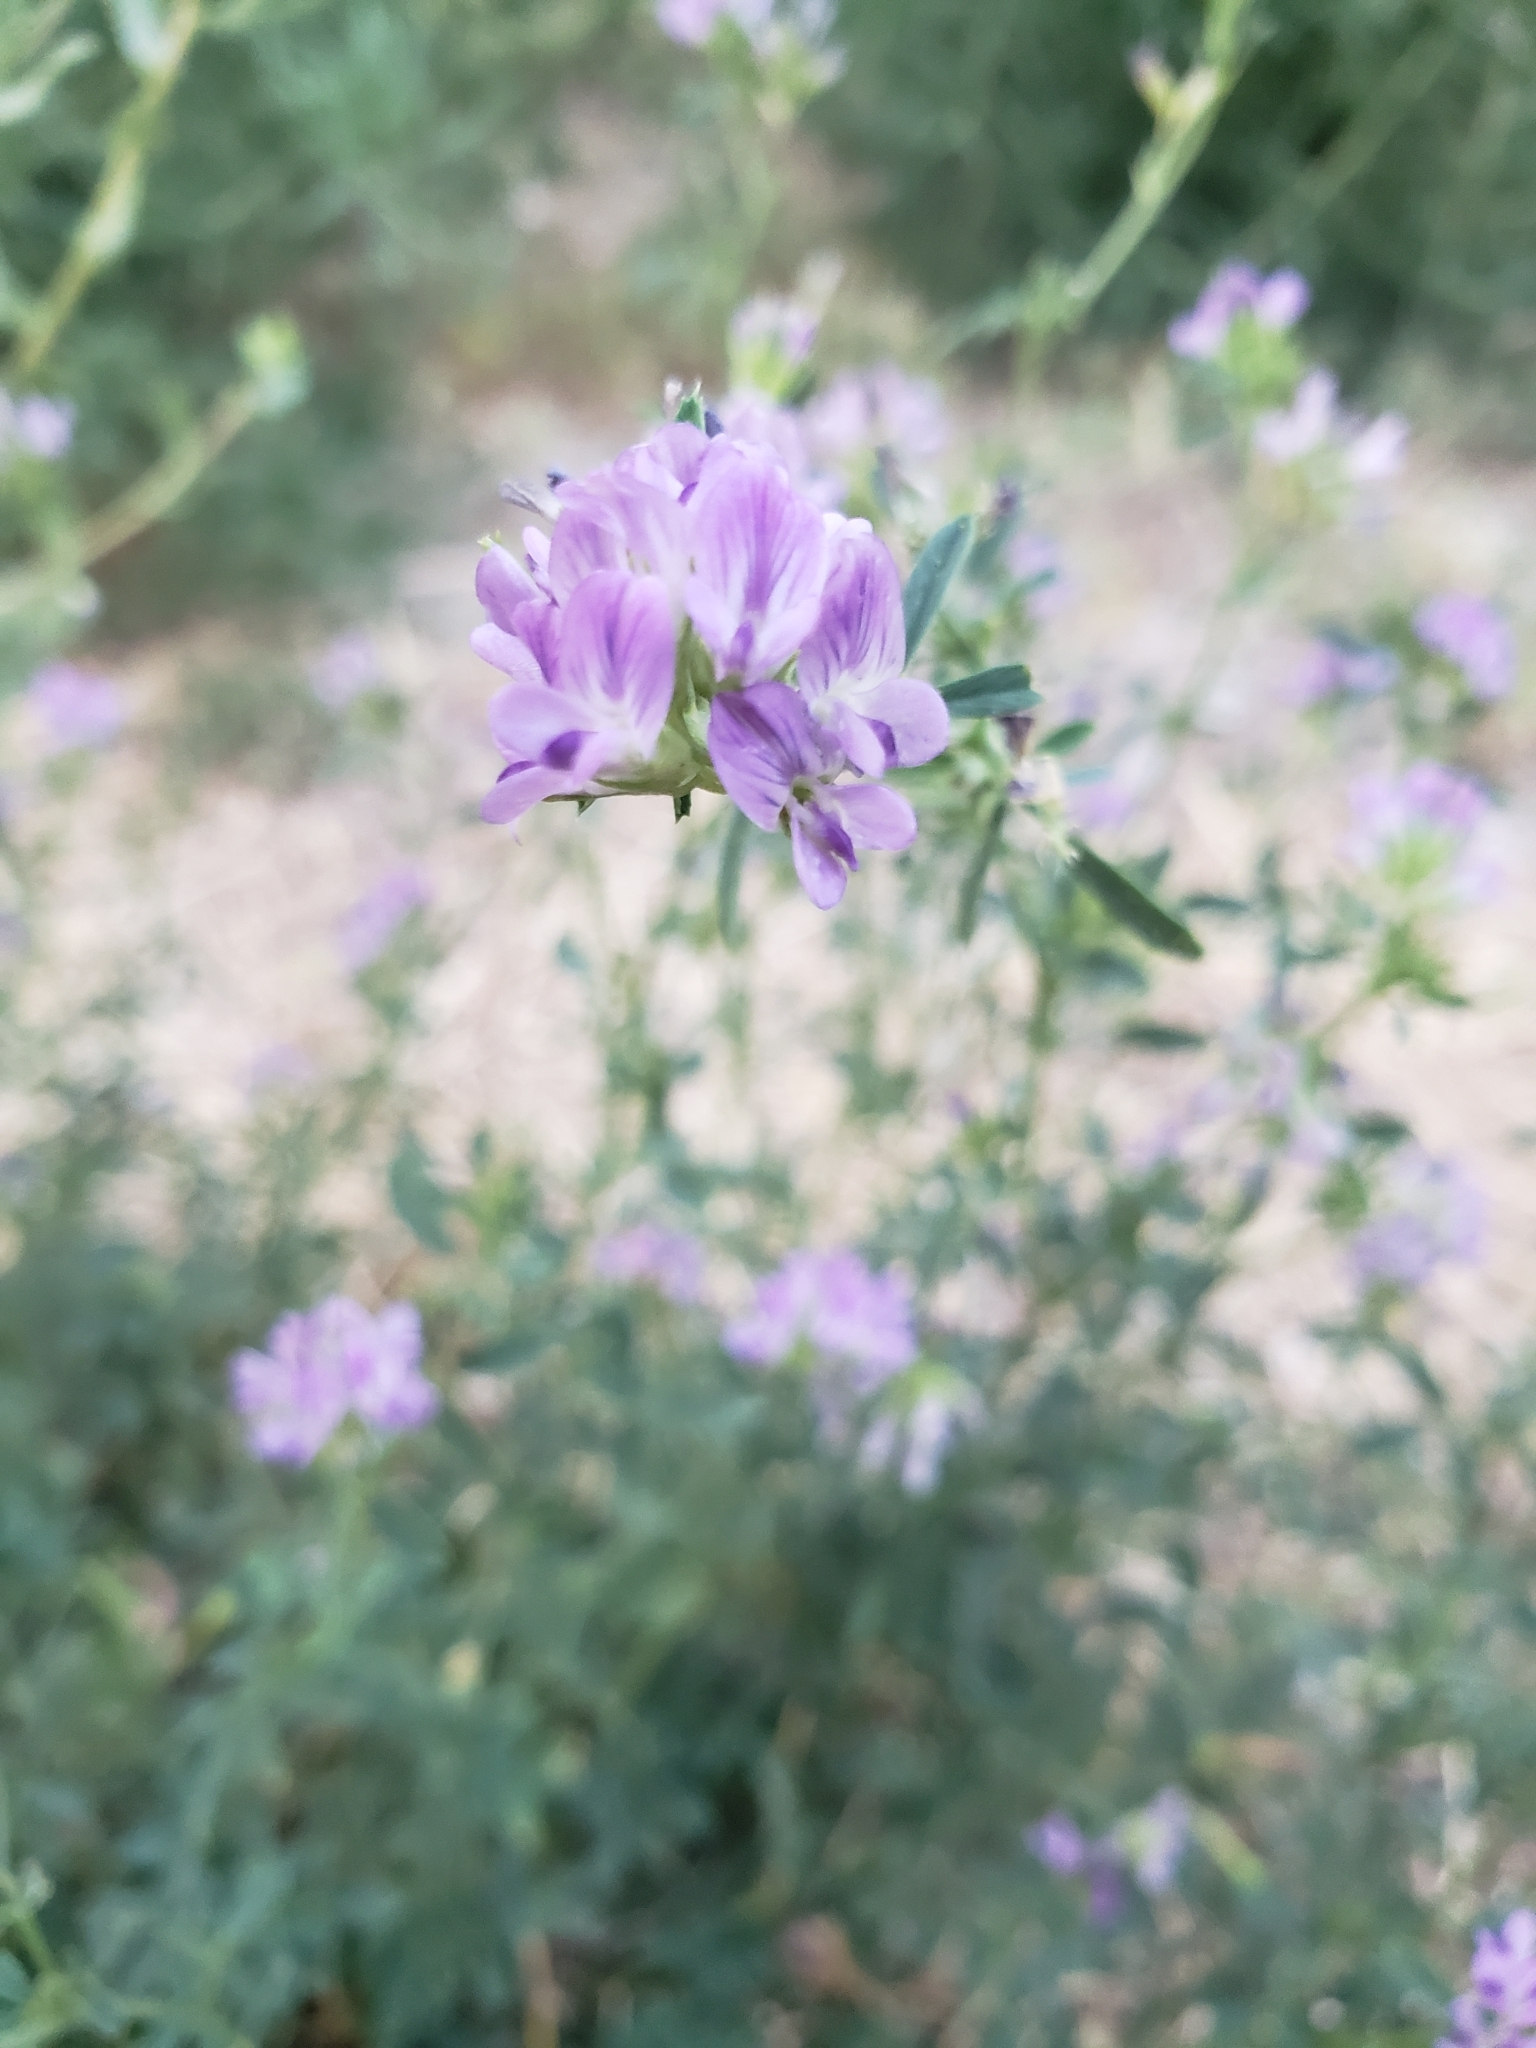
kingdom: Plantae
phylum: Tracheophyta
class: Magnoliopsida
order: Fabales
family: Fabaceae
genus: Medicago
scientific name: Medicago sativa
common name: Alfalfa
